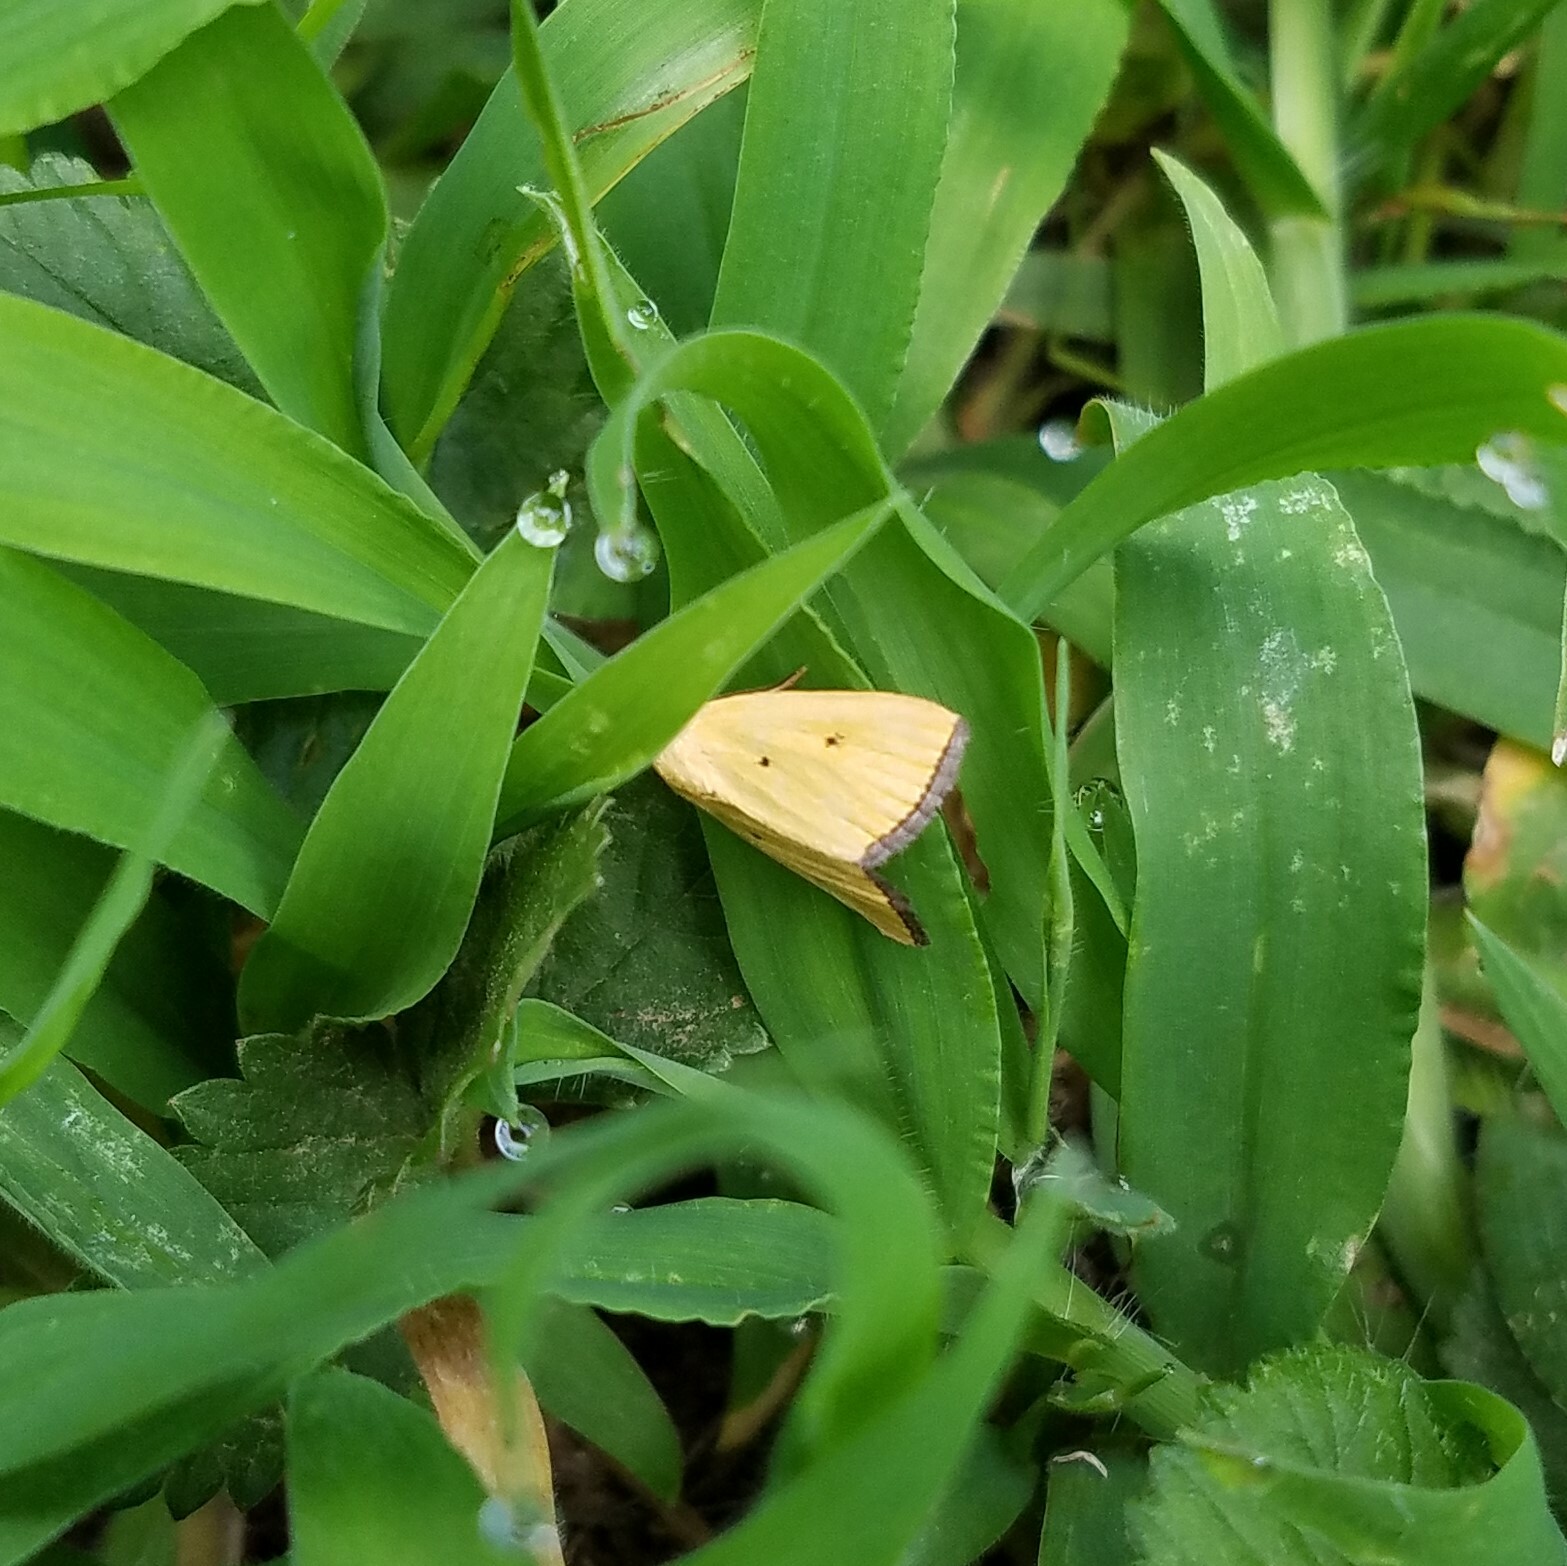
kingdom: Animalia
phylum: Arthropoda
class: Insecta
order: Lepidoptera
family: Noctuidae
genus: Marimatha
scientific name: Marimatha nigrofimbria
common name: Black-bordered lemon moth
